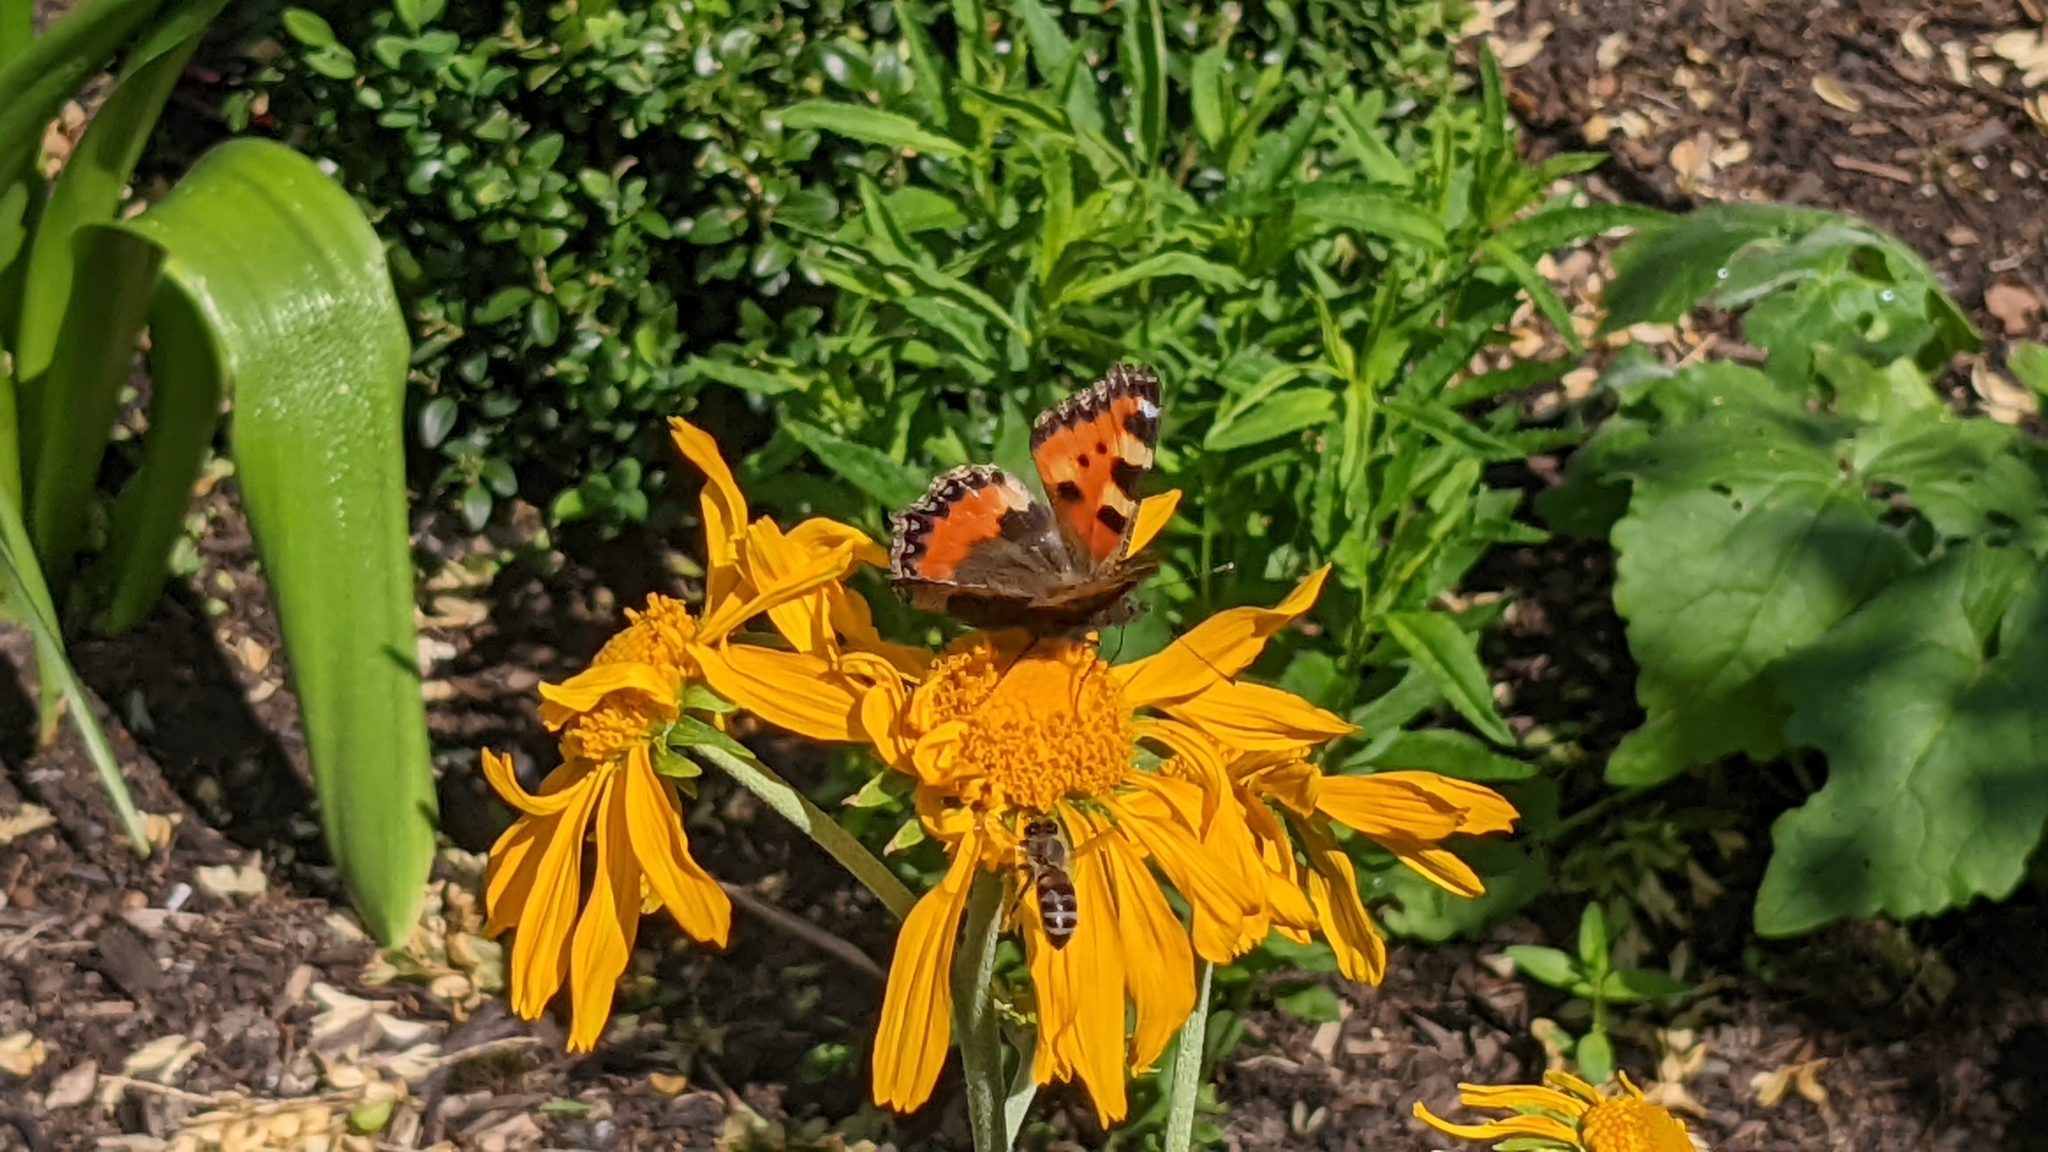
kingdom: Animalia
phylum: Arthropoda
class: Insecta
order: Lepidoptera
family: Nymphalidae
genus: Aglais
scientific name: Aglais urticae
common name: Small tortoiseshell
